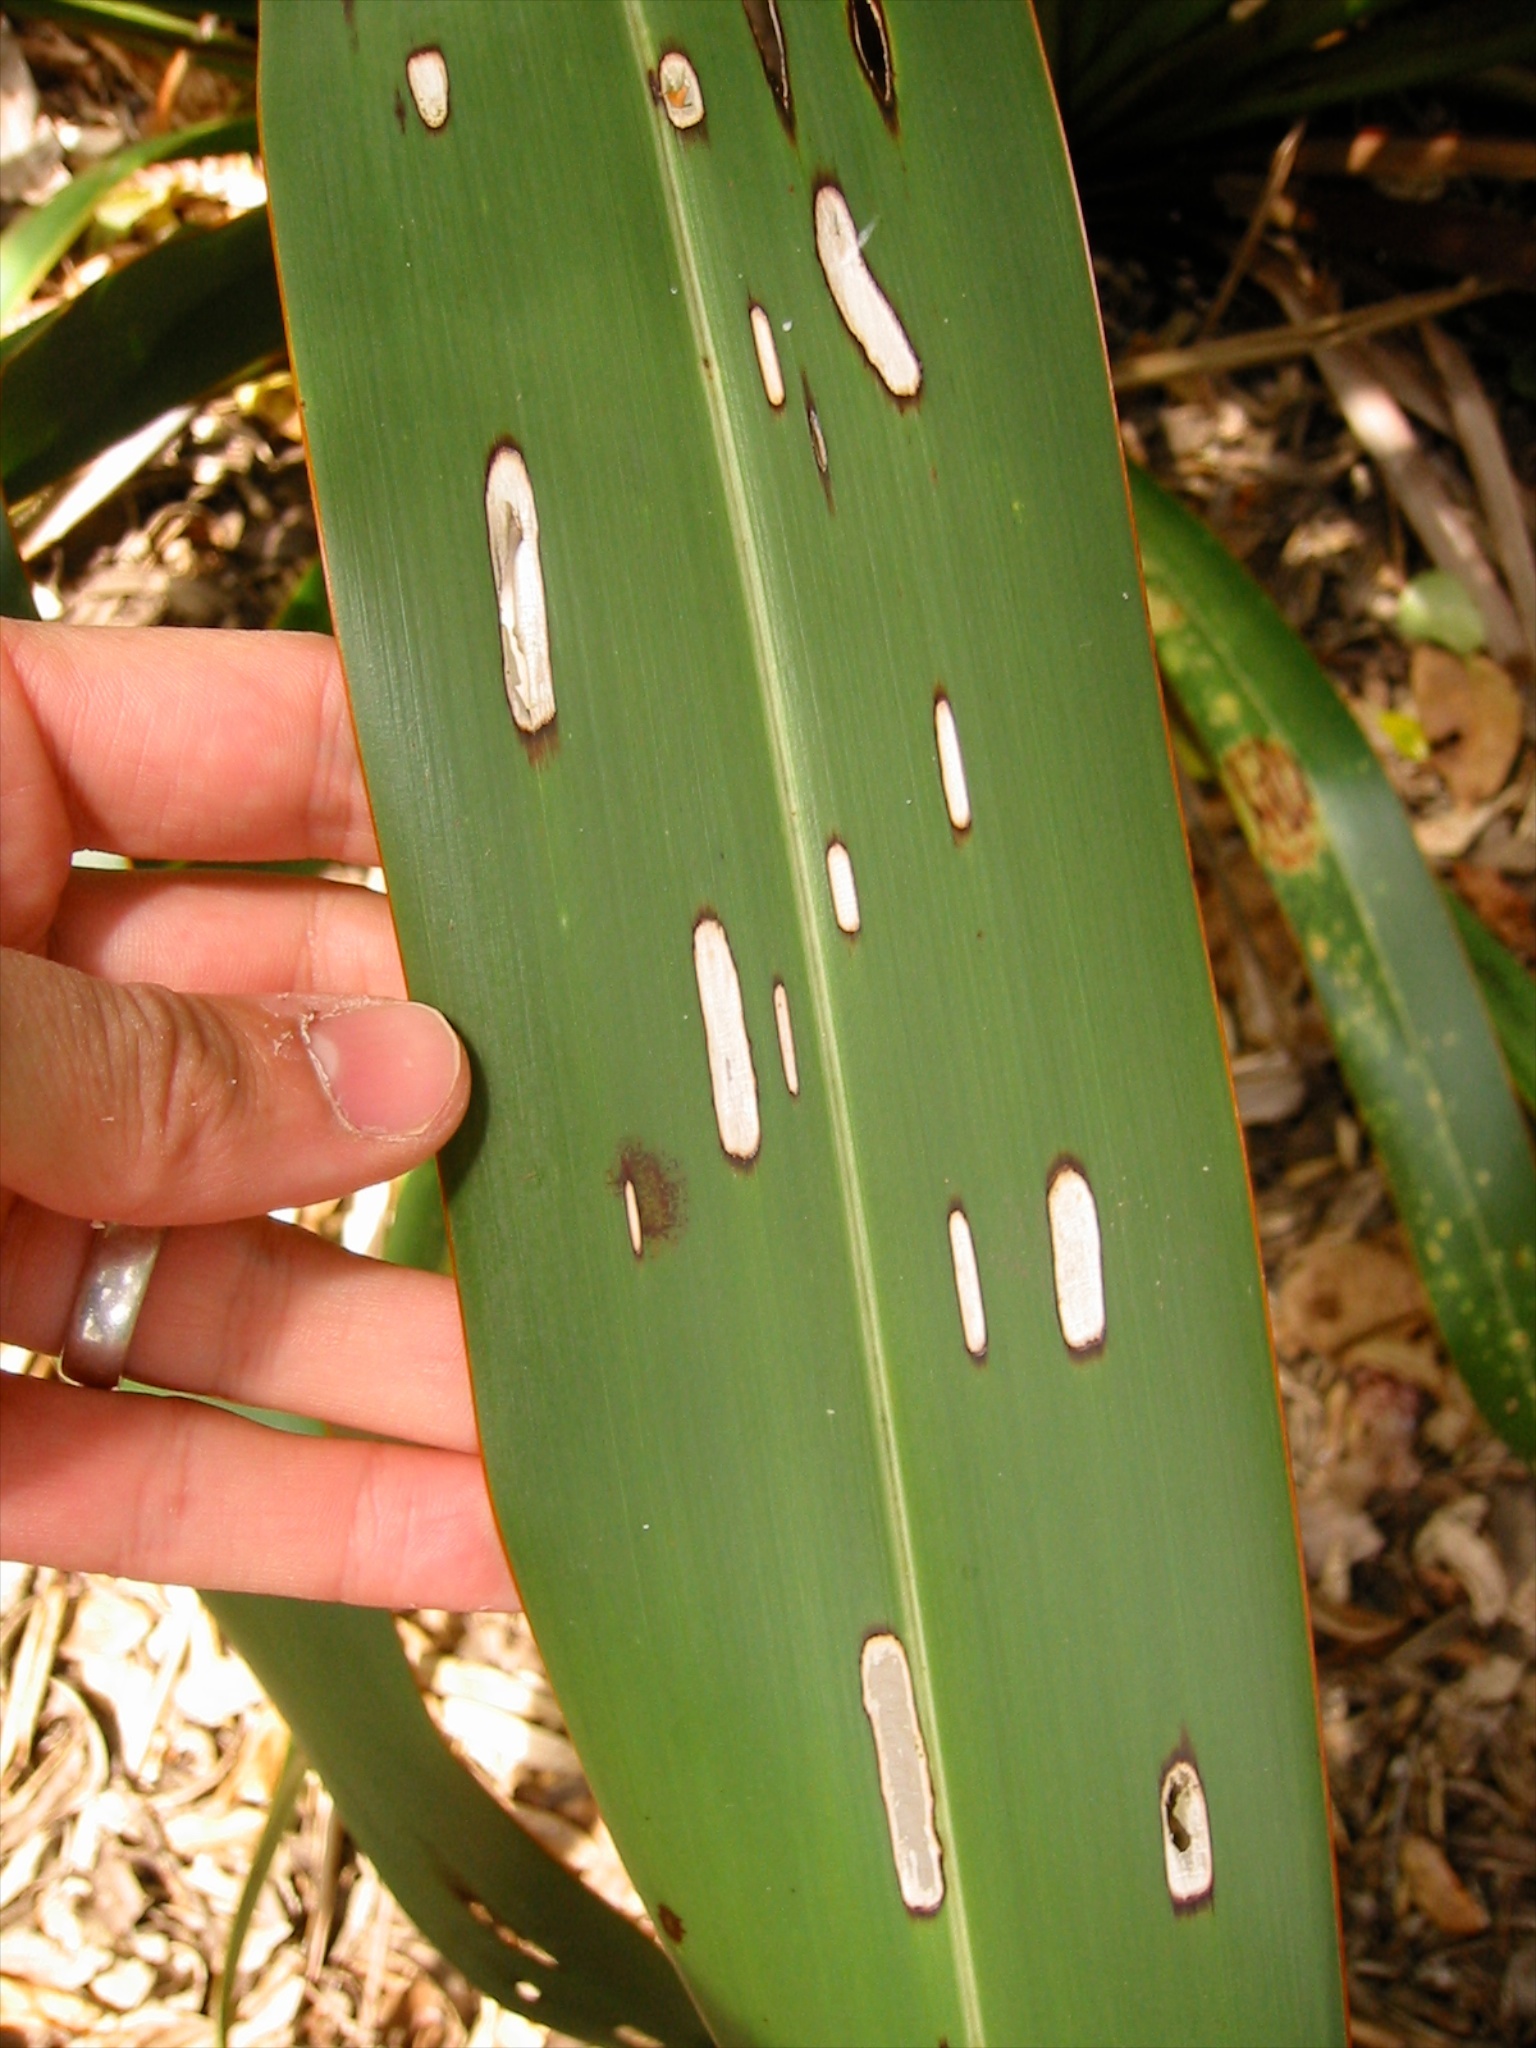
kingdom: Animalia
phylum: Arthropoda
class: Insecta
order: Lepidoptera
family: Geometridae
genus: Orthoclydon
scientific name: Orthoclydon praefectata
